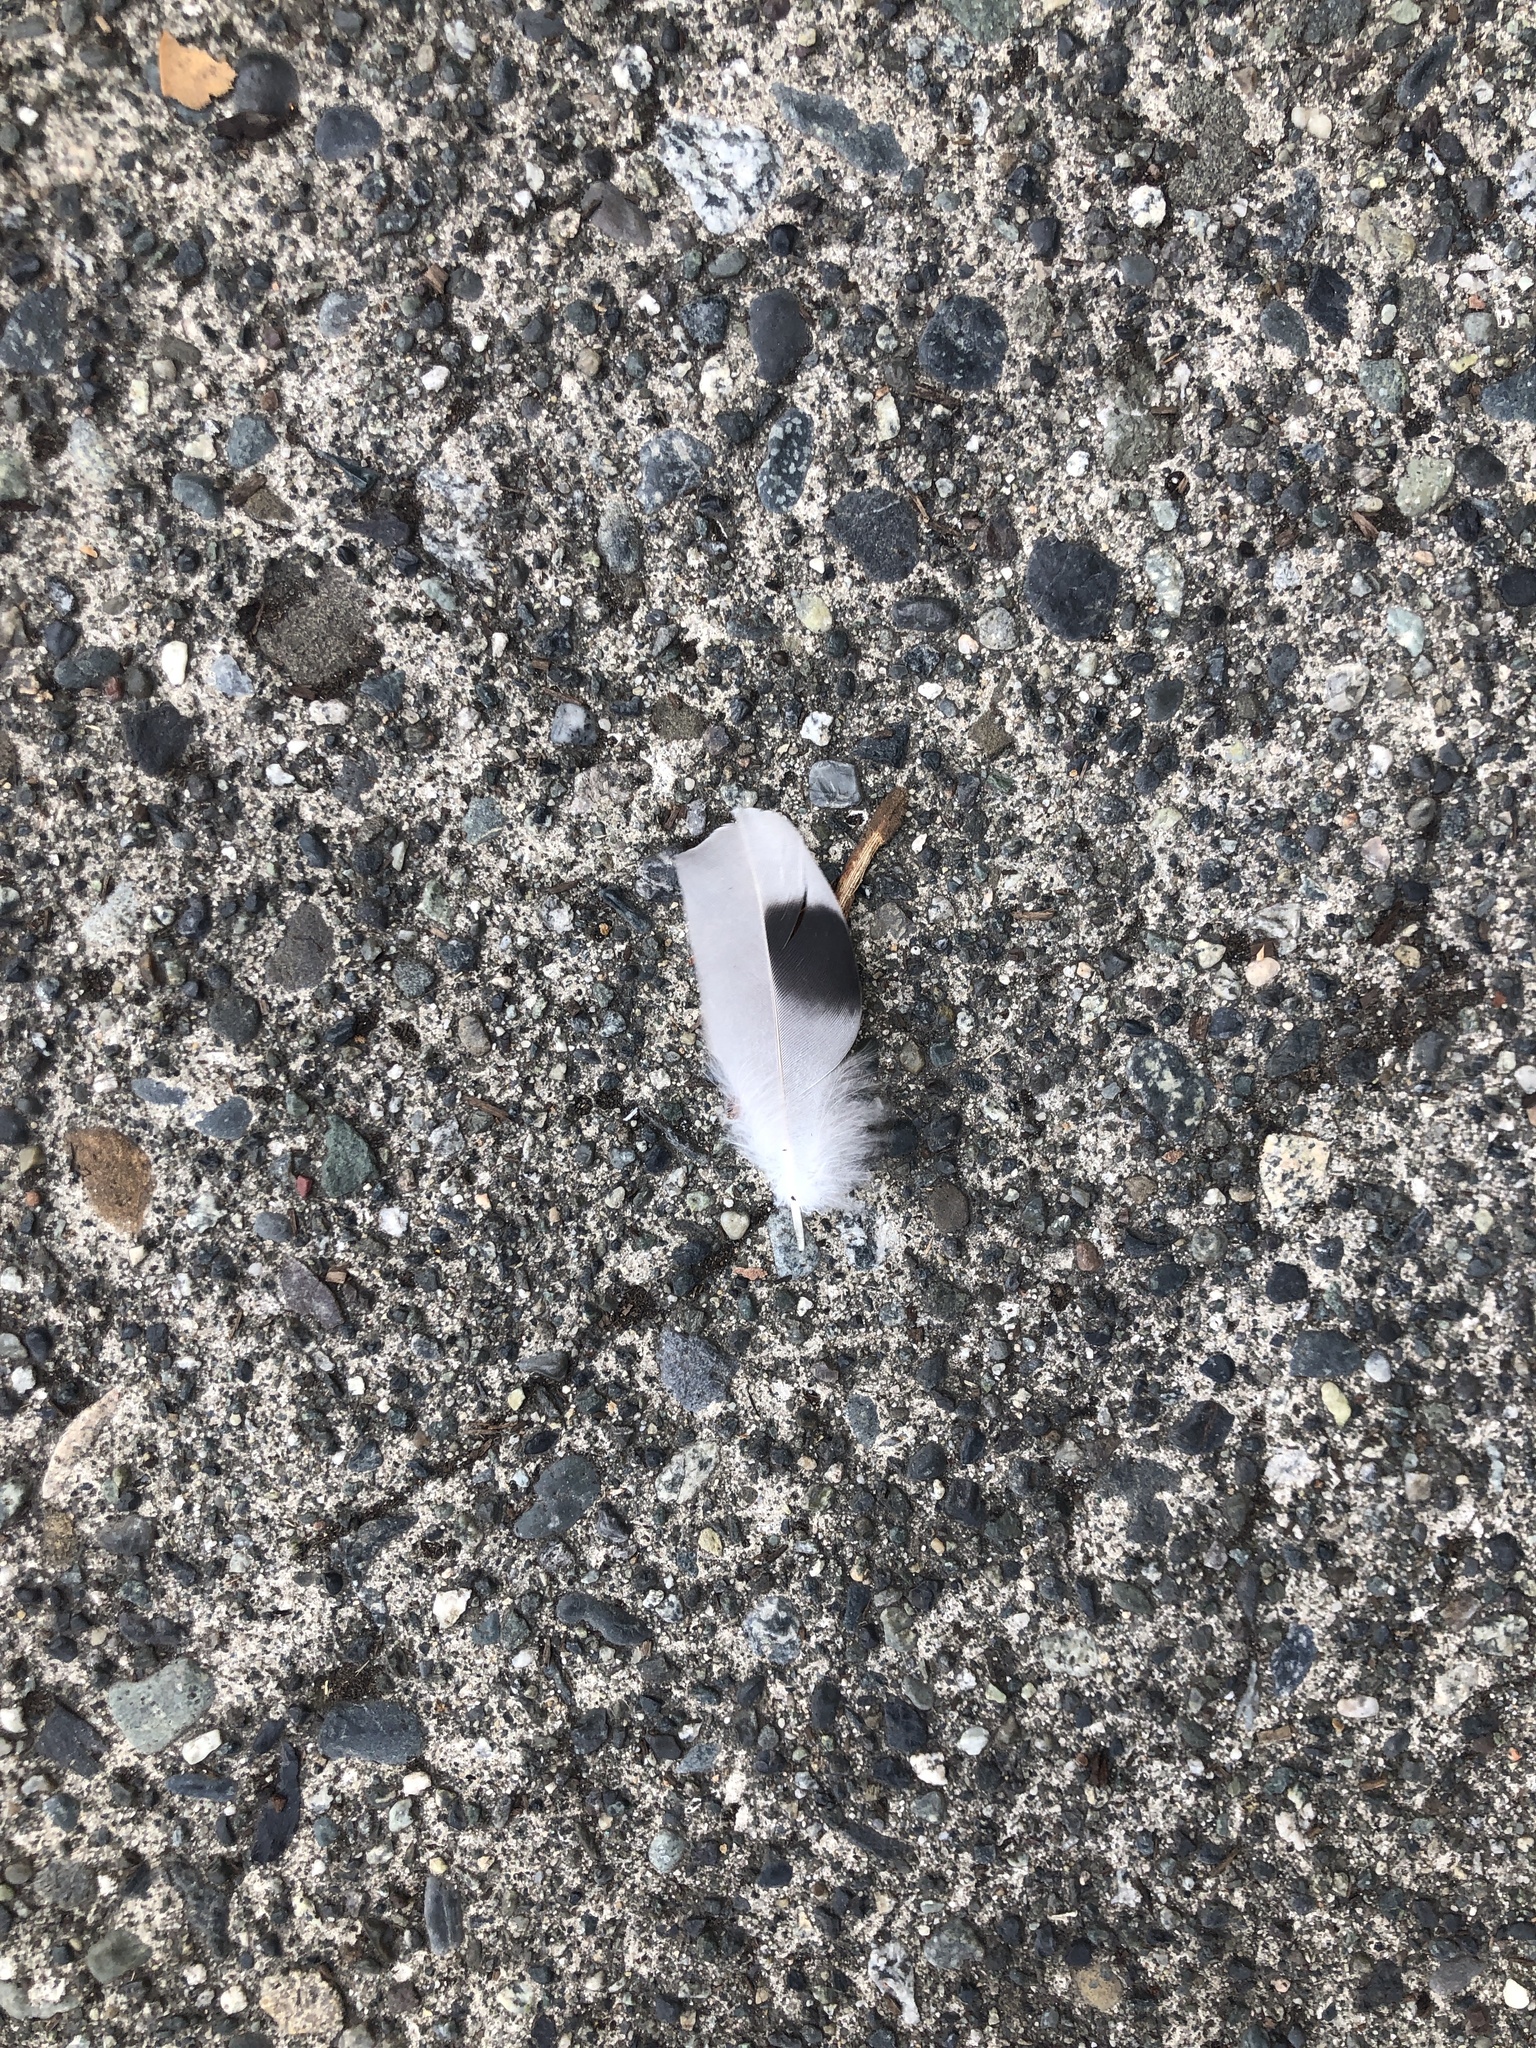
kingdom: Animalia
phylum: Chordata
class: Aves
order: Columbiformes
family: Columbidae
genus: Columba
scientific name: Columba livia
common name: Rock pigeon
